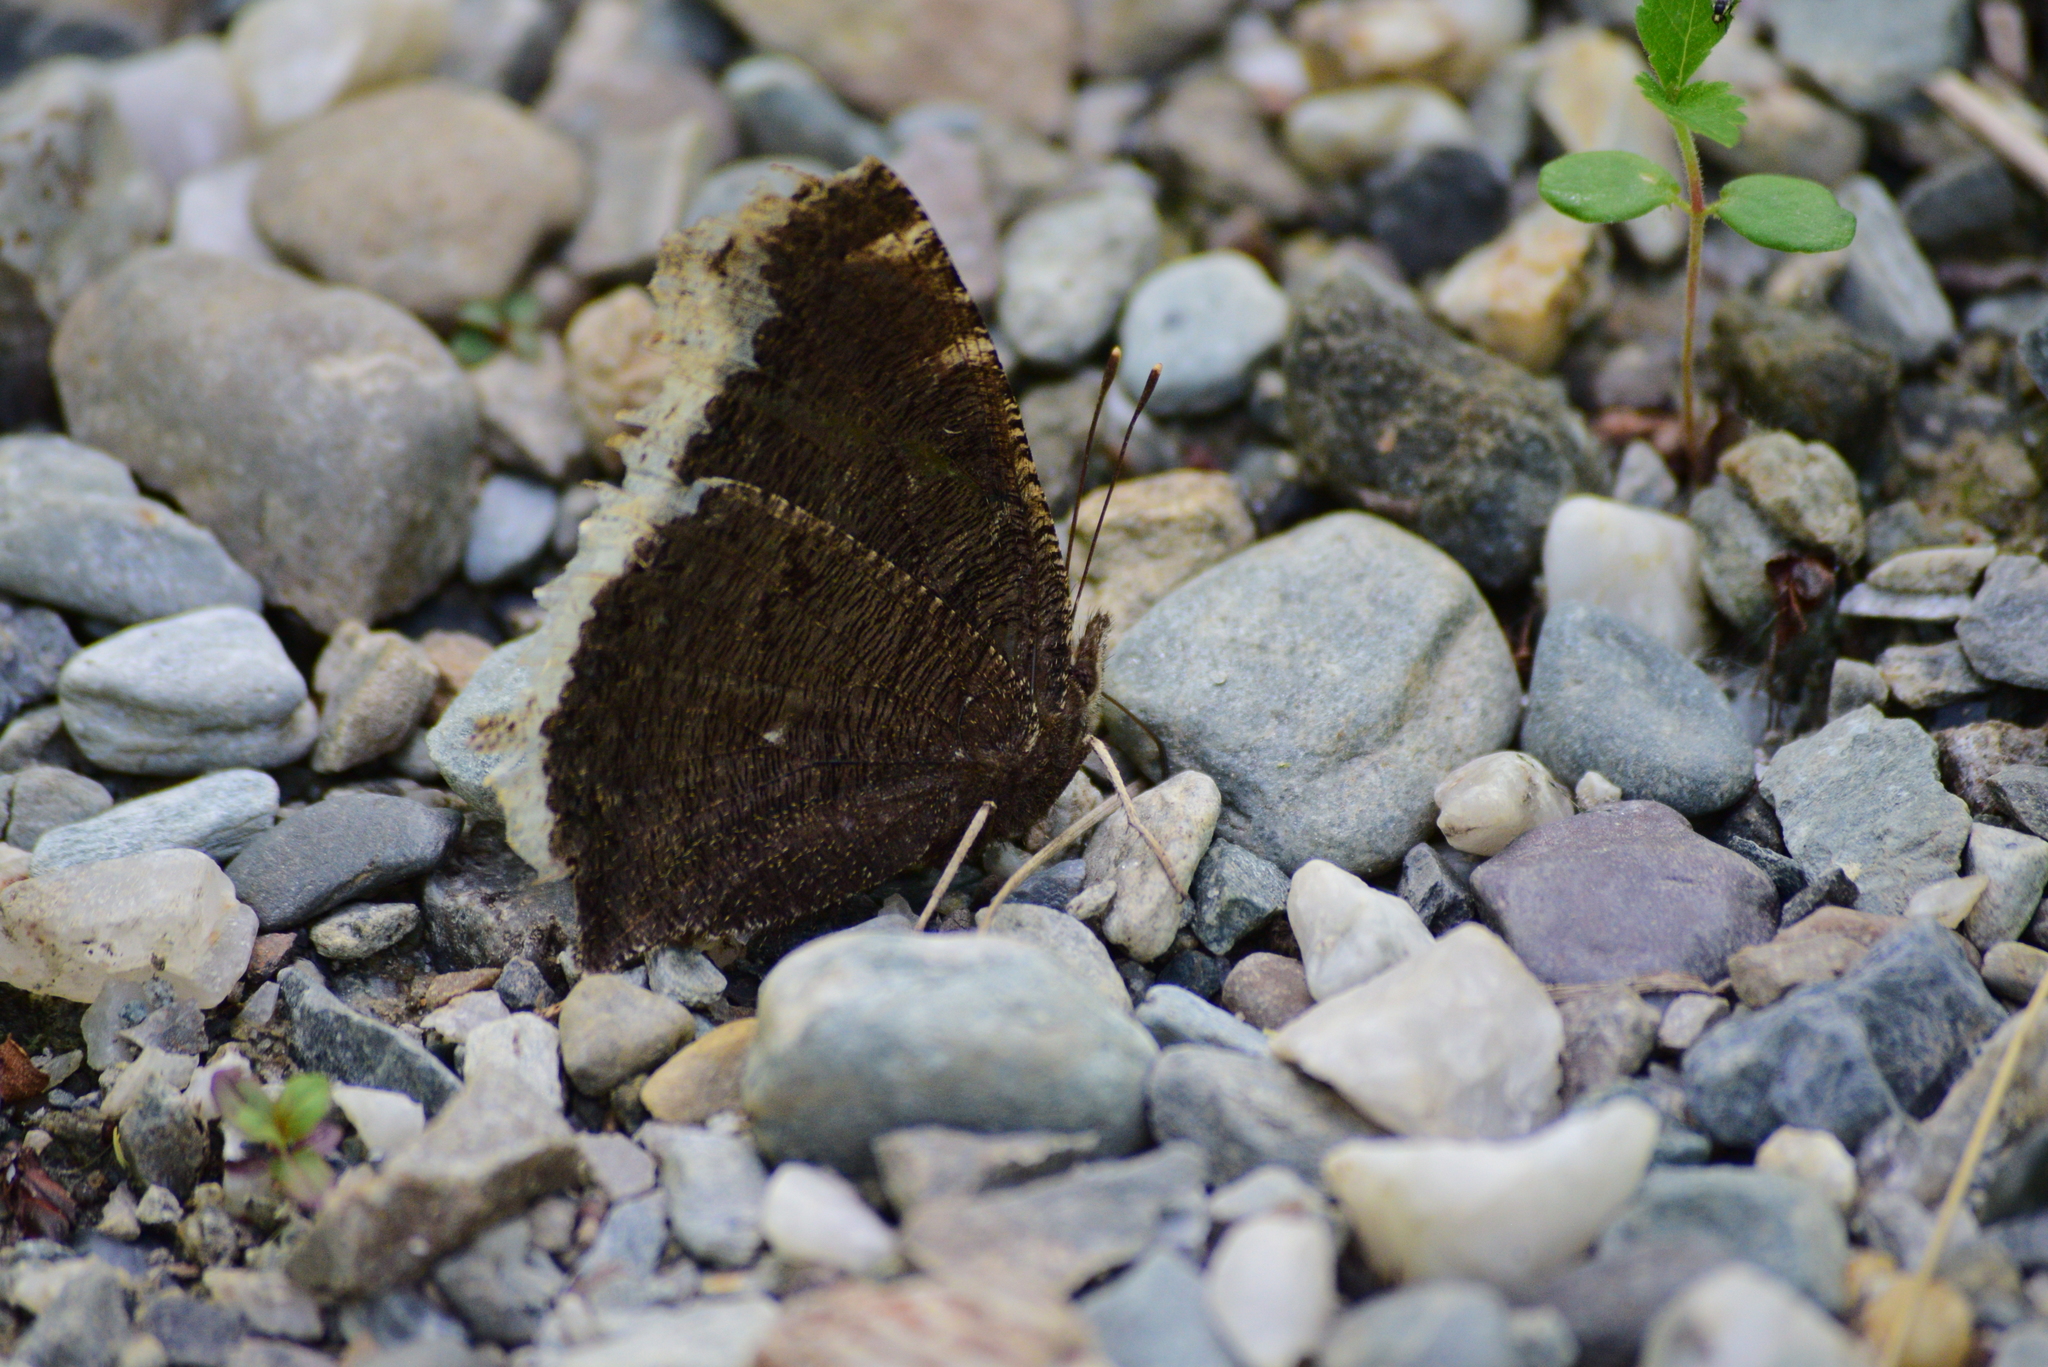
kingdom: Animalia
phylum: Arthropoda
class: Insecta
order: Lepidoptera
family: Nymphalidae
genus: Nymphalis
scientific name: Nymphalis antiopa
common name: Camberwell beauty
